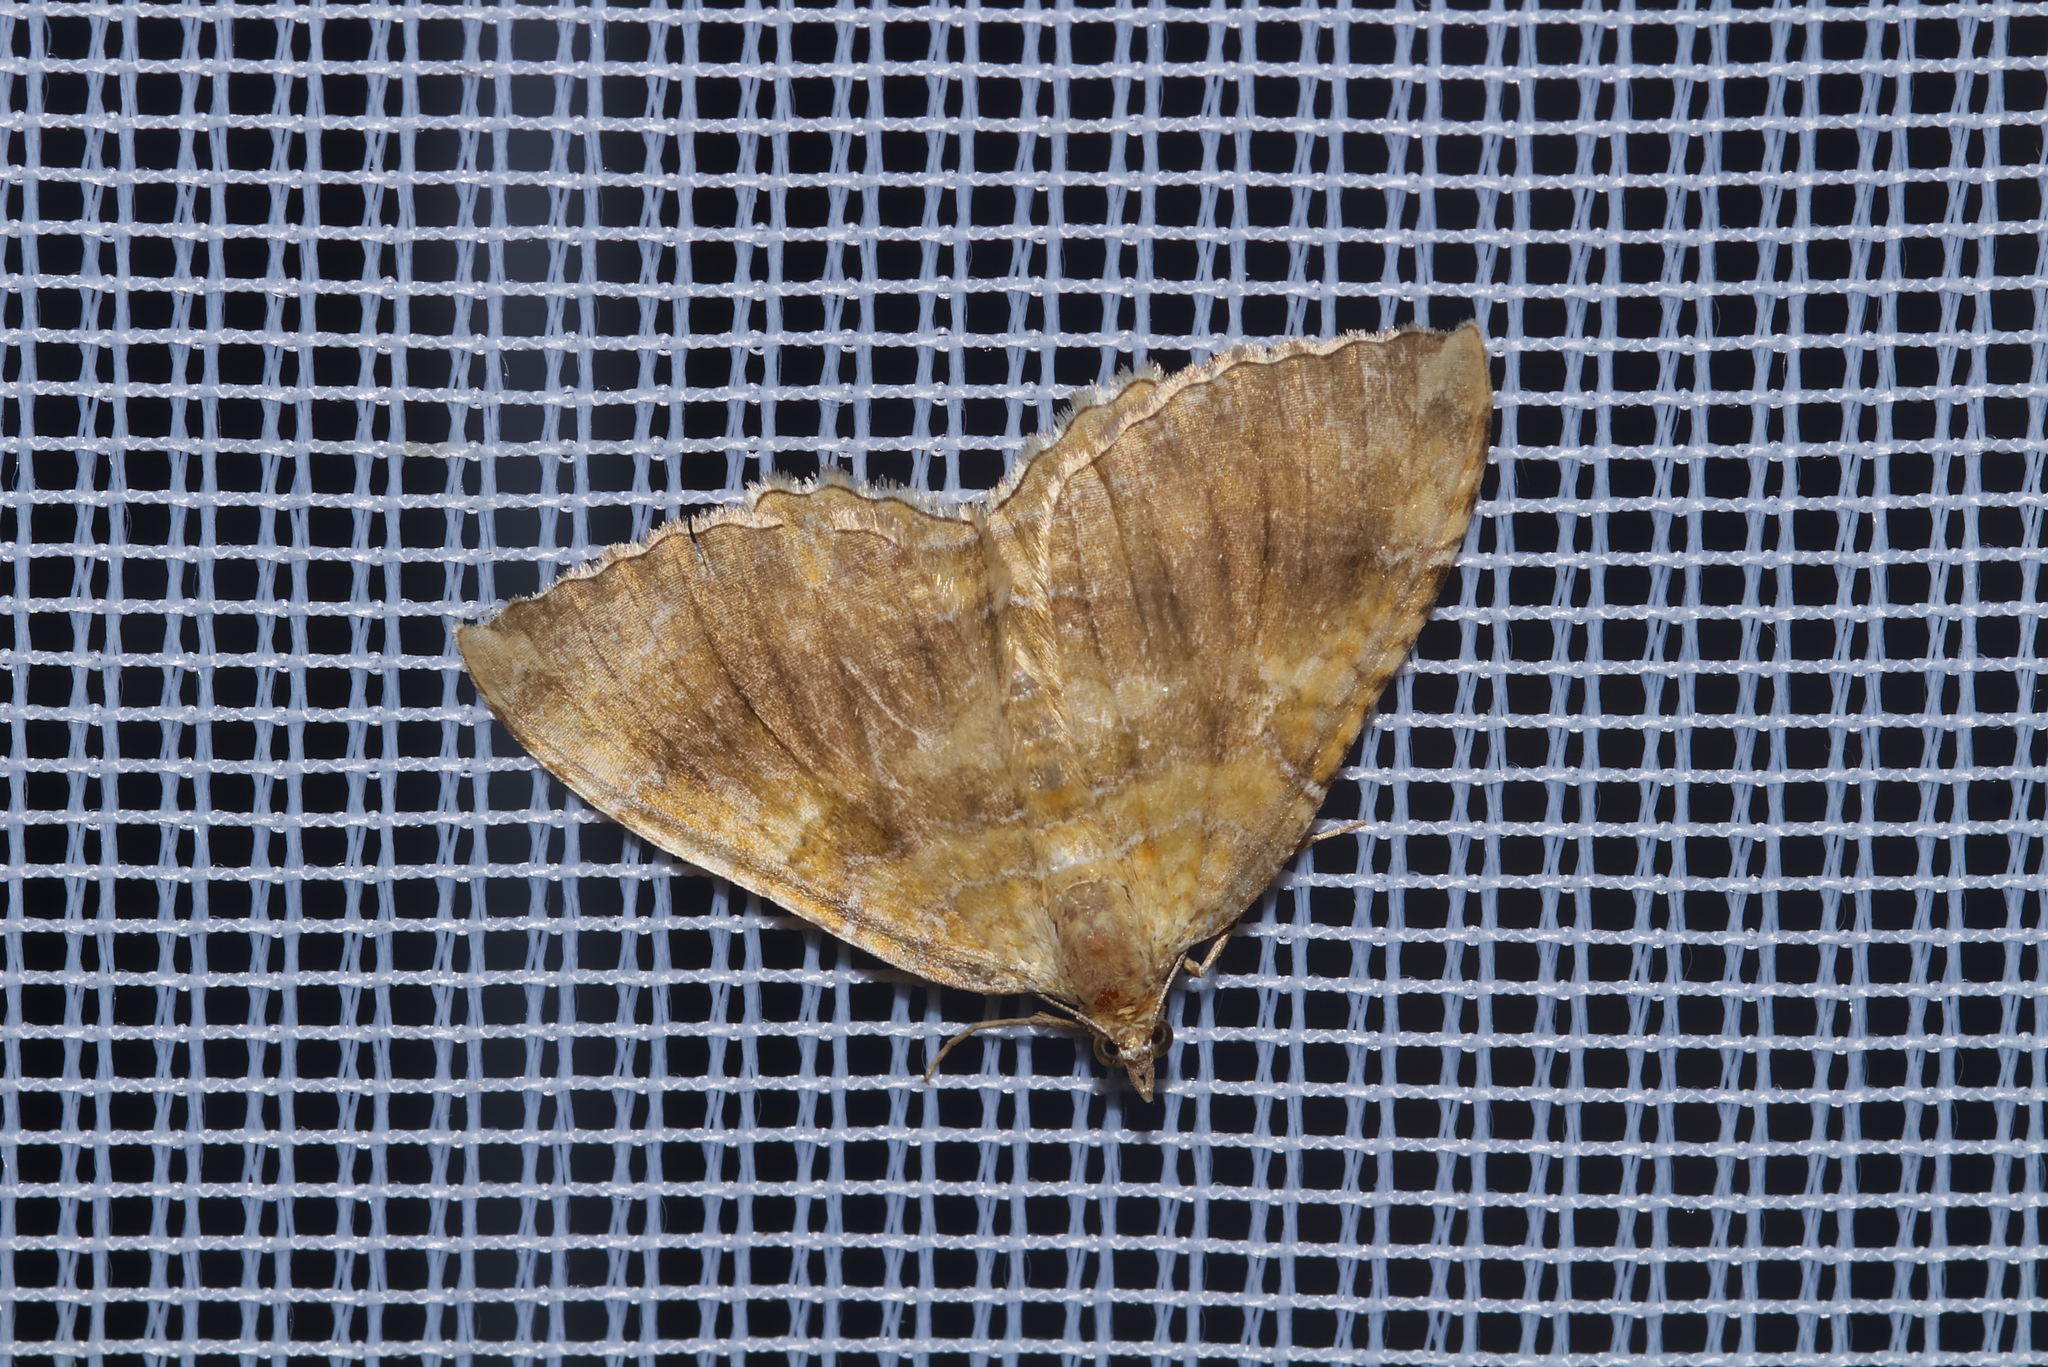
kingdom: Animalia
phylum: Arthropoda
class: Insecta
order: Lepidoptera
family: Geometridae
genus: Camptogramma
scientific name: Camptogramma bilineata
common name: Yellow shell
